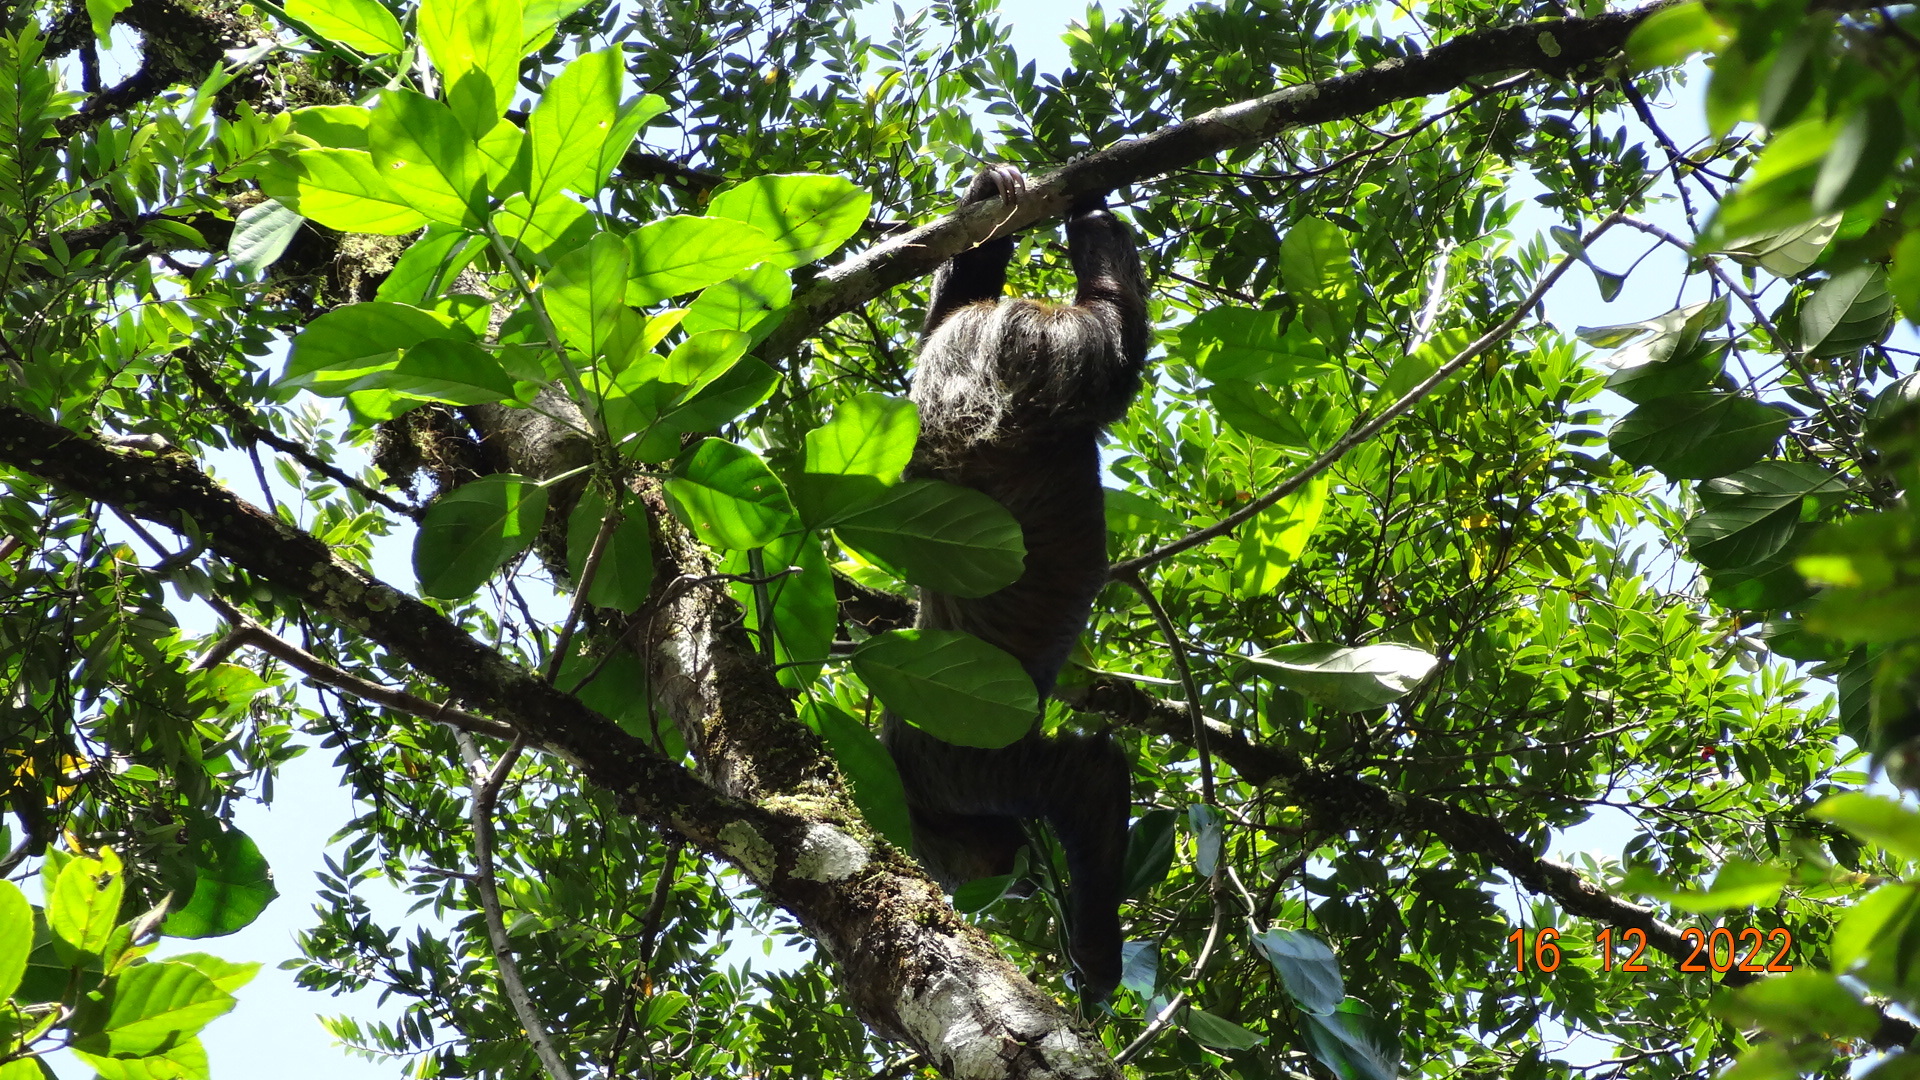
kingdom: Animalia
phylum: Chordata
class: Mammalia
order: Pilosa
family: Megalonychidae
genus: Choloepus
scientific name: Choloepus didactylus
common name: Southern two-toed sloth
